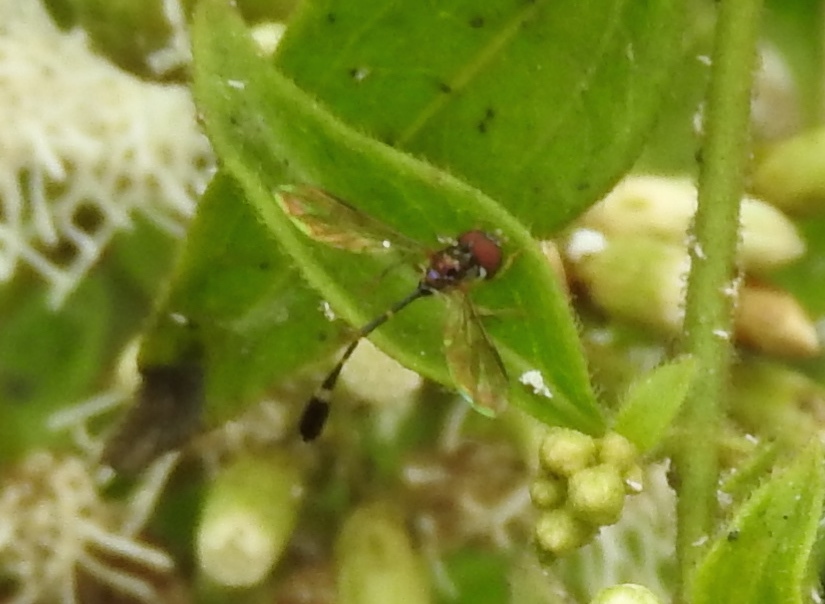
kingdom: Animalia
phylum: Arthropoda
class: Insecta
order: Diptera
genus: Bacchina
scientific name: Bacchina
